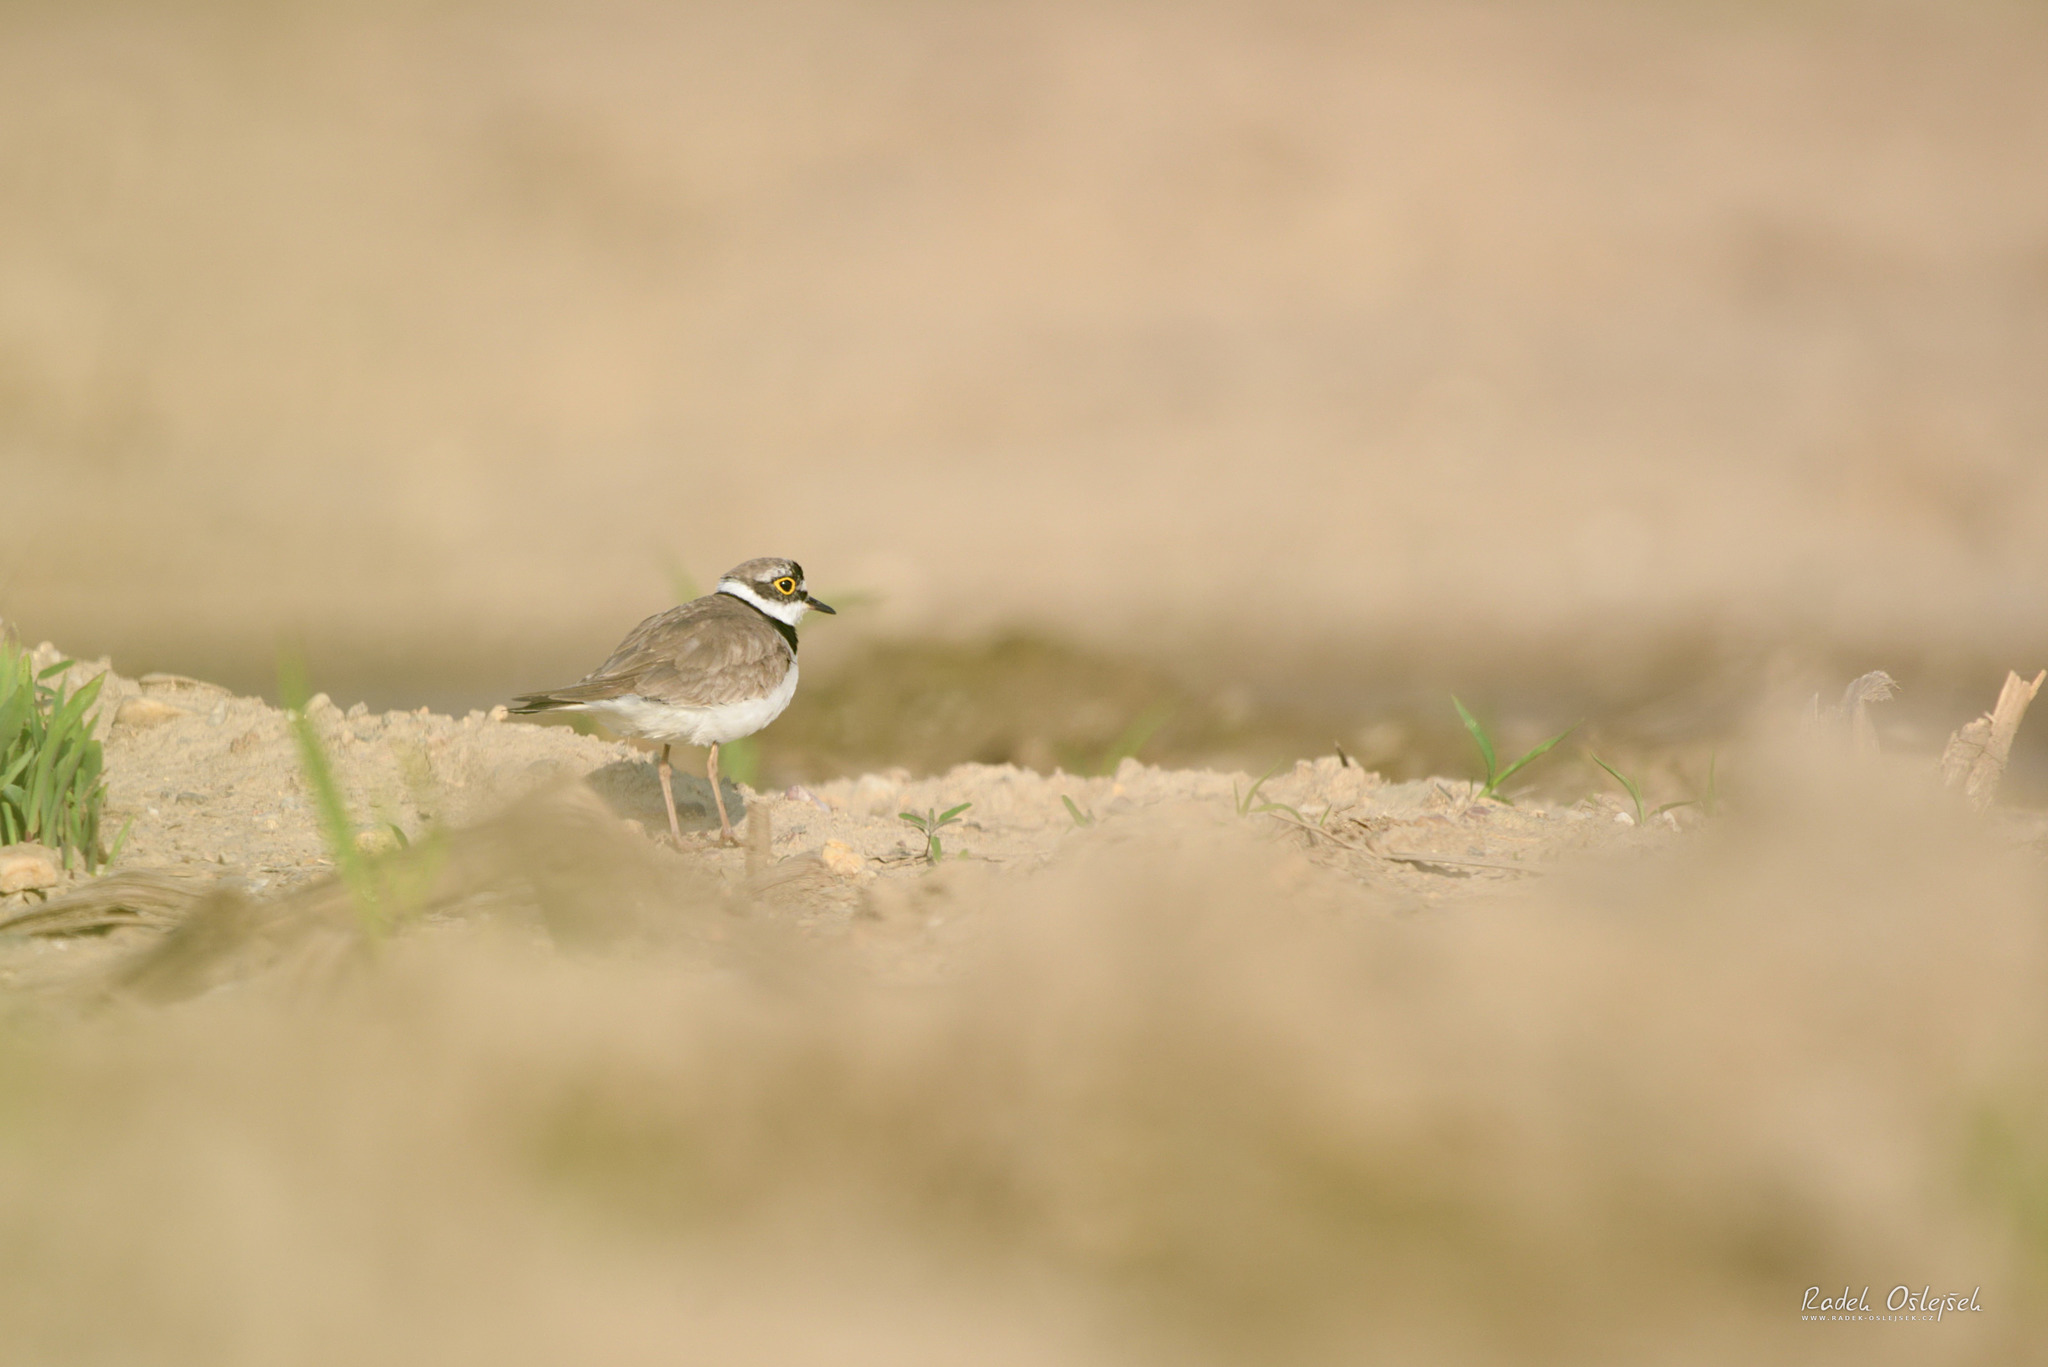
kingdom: Animalia
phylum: Chordata
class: Aves
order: Charadriiformes
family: Charadriidae
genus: Charadrius
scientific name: Charadrius dubius
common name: Little ringed plover
